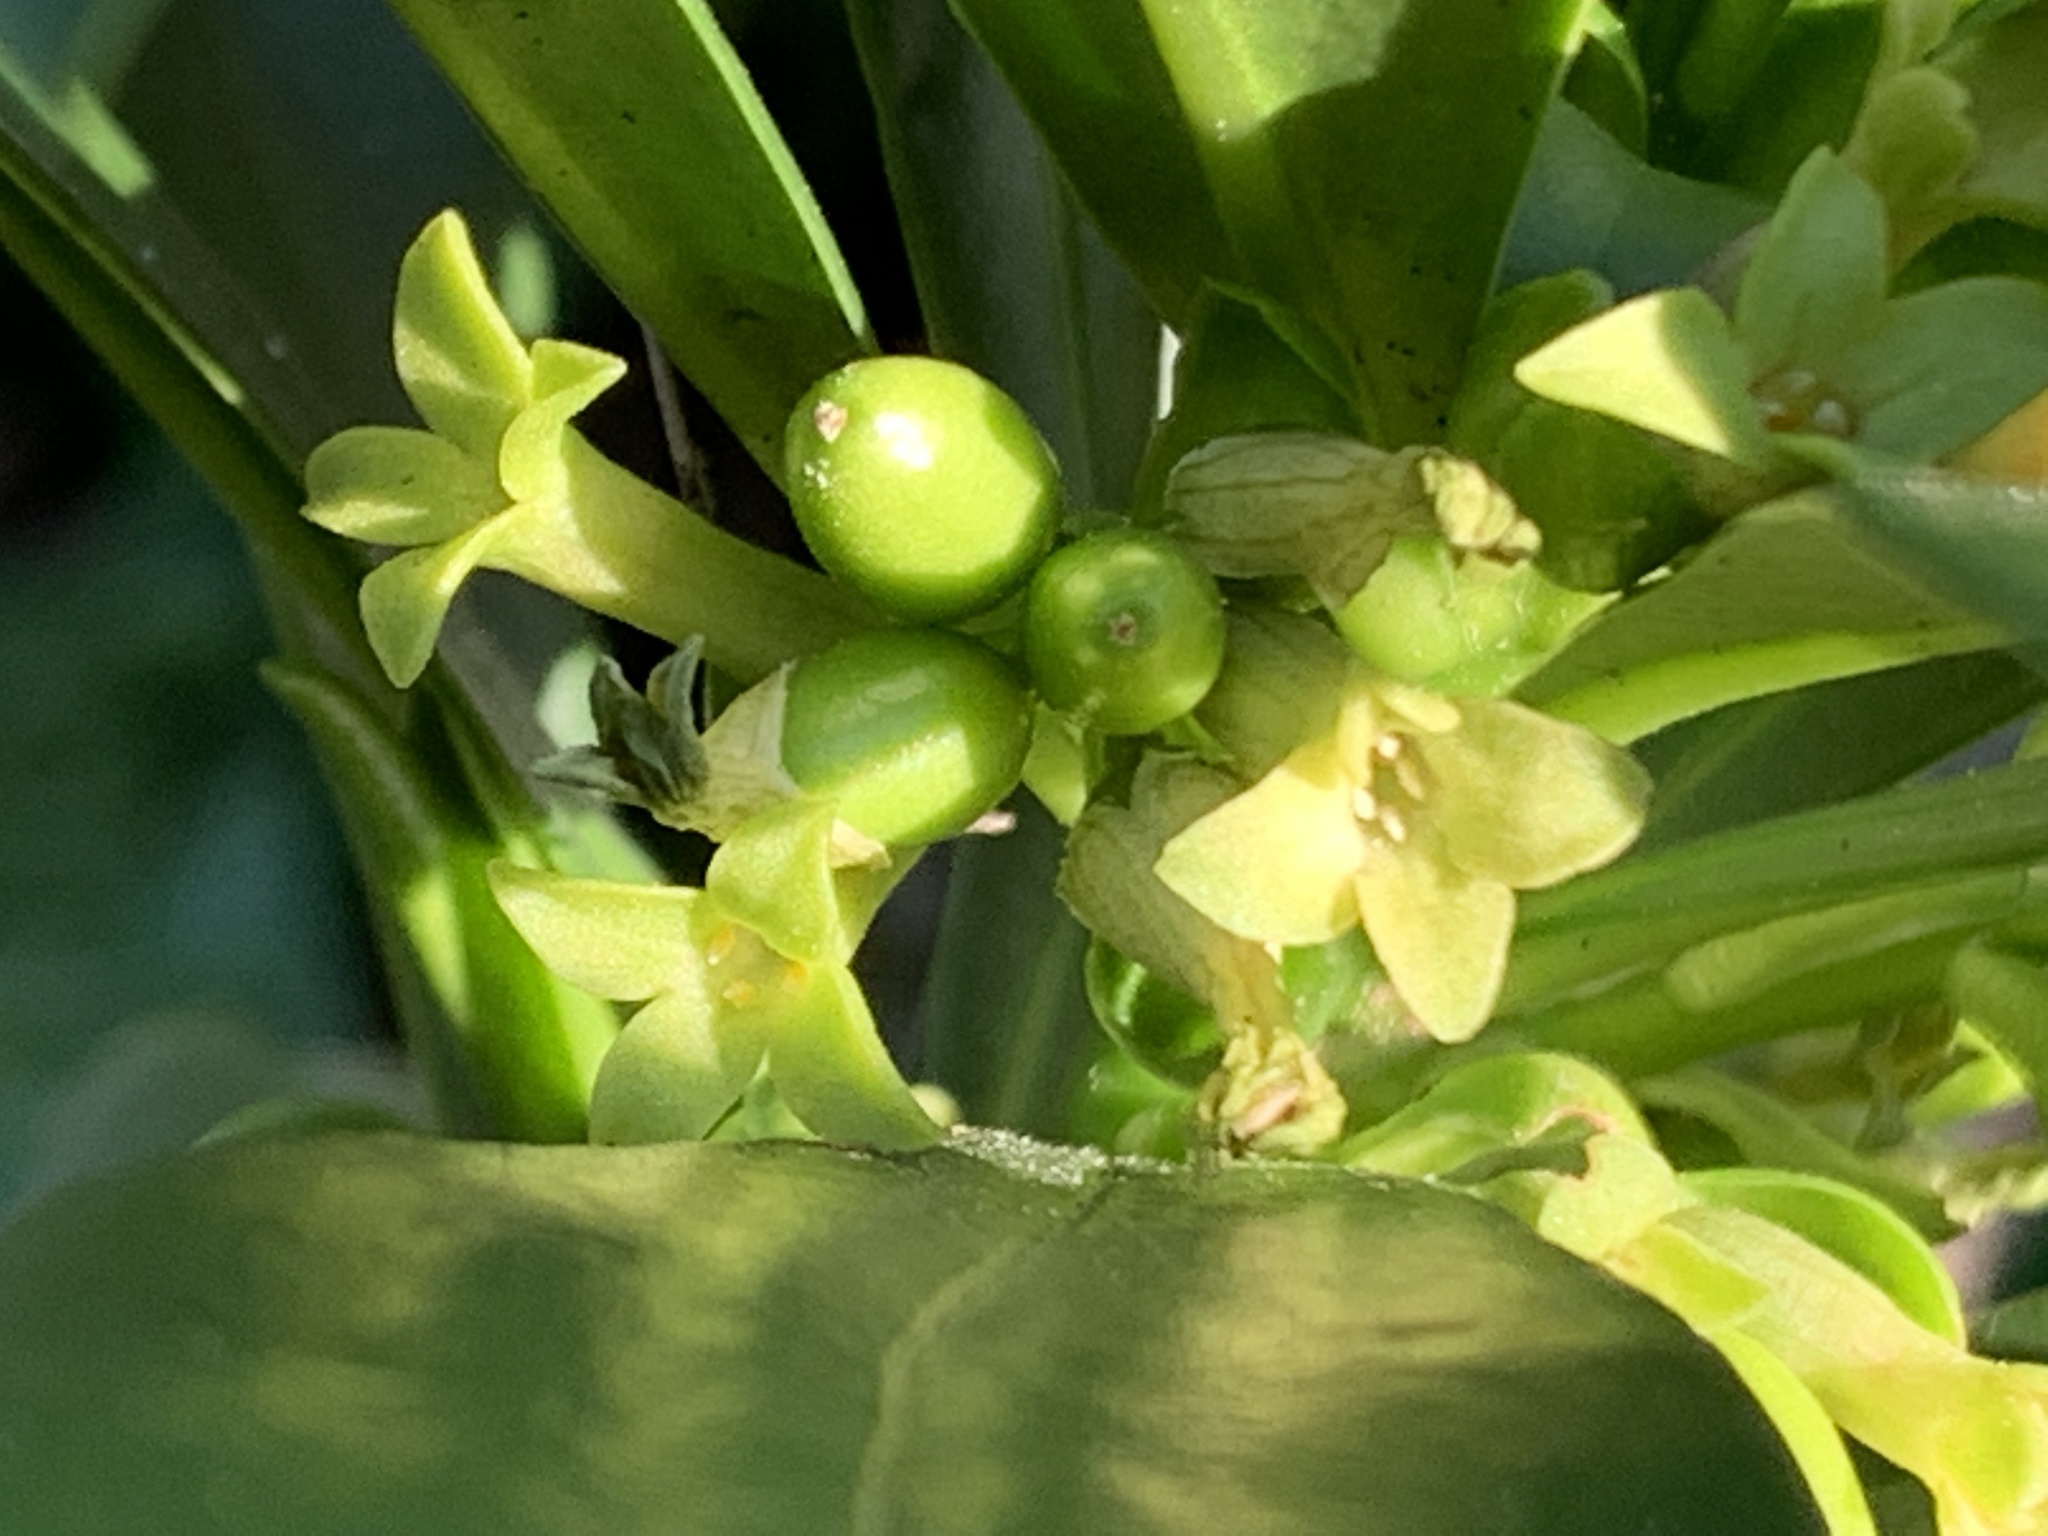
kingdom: Plantae
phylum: Tracheophyta
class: Magnoliopsida
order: Malvales
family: Thymelaeaceae
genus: Daphne
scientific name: Daphne laureola
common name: Spurge-laurel
